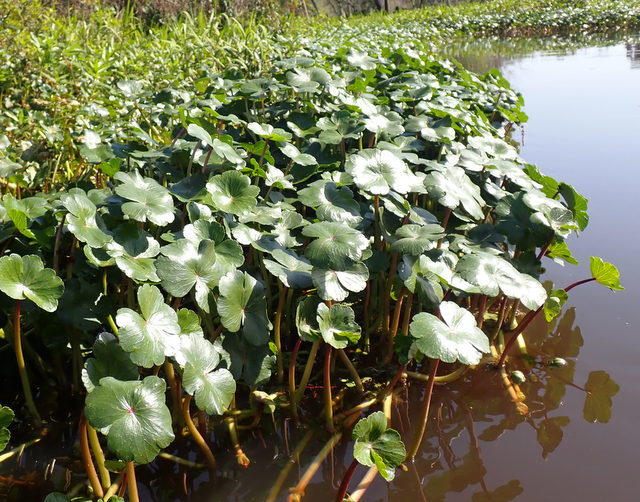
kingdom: Plantae
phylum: Tracheophyta
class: Magnoliopsida
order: Apiales
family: Araliaceae
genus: Hydrocotyle
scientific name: Hydrocotyle ranunculoides
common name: Floating pennywort
